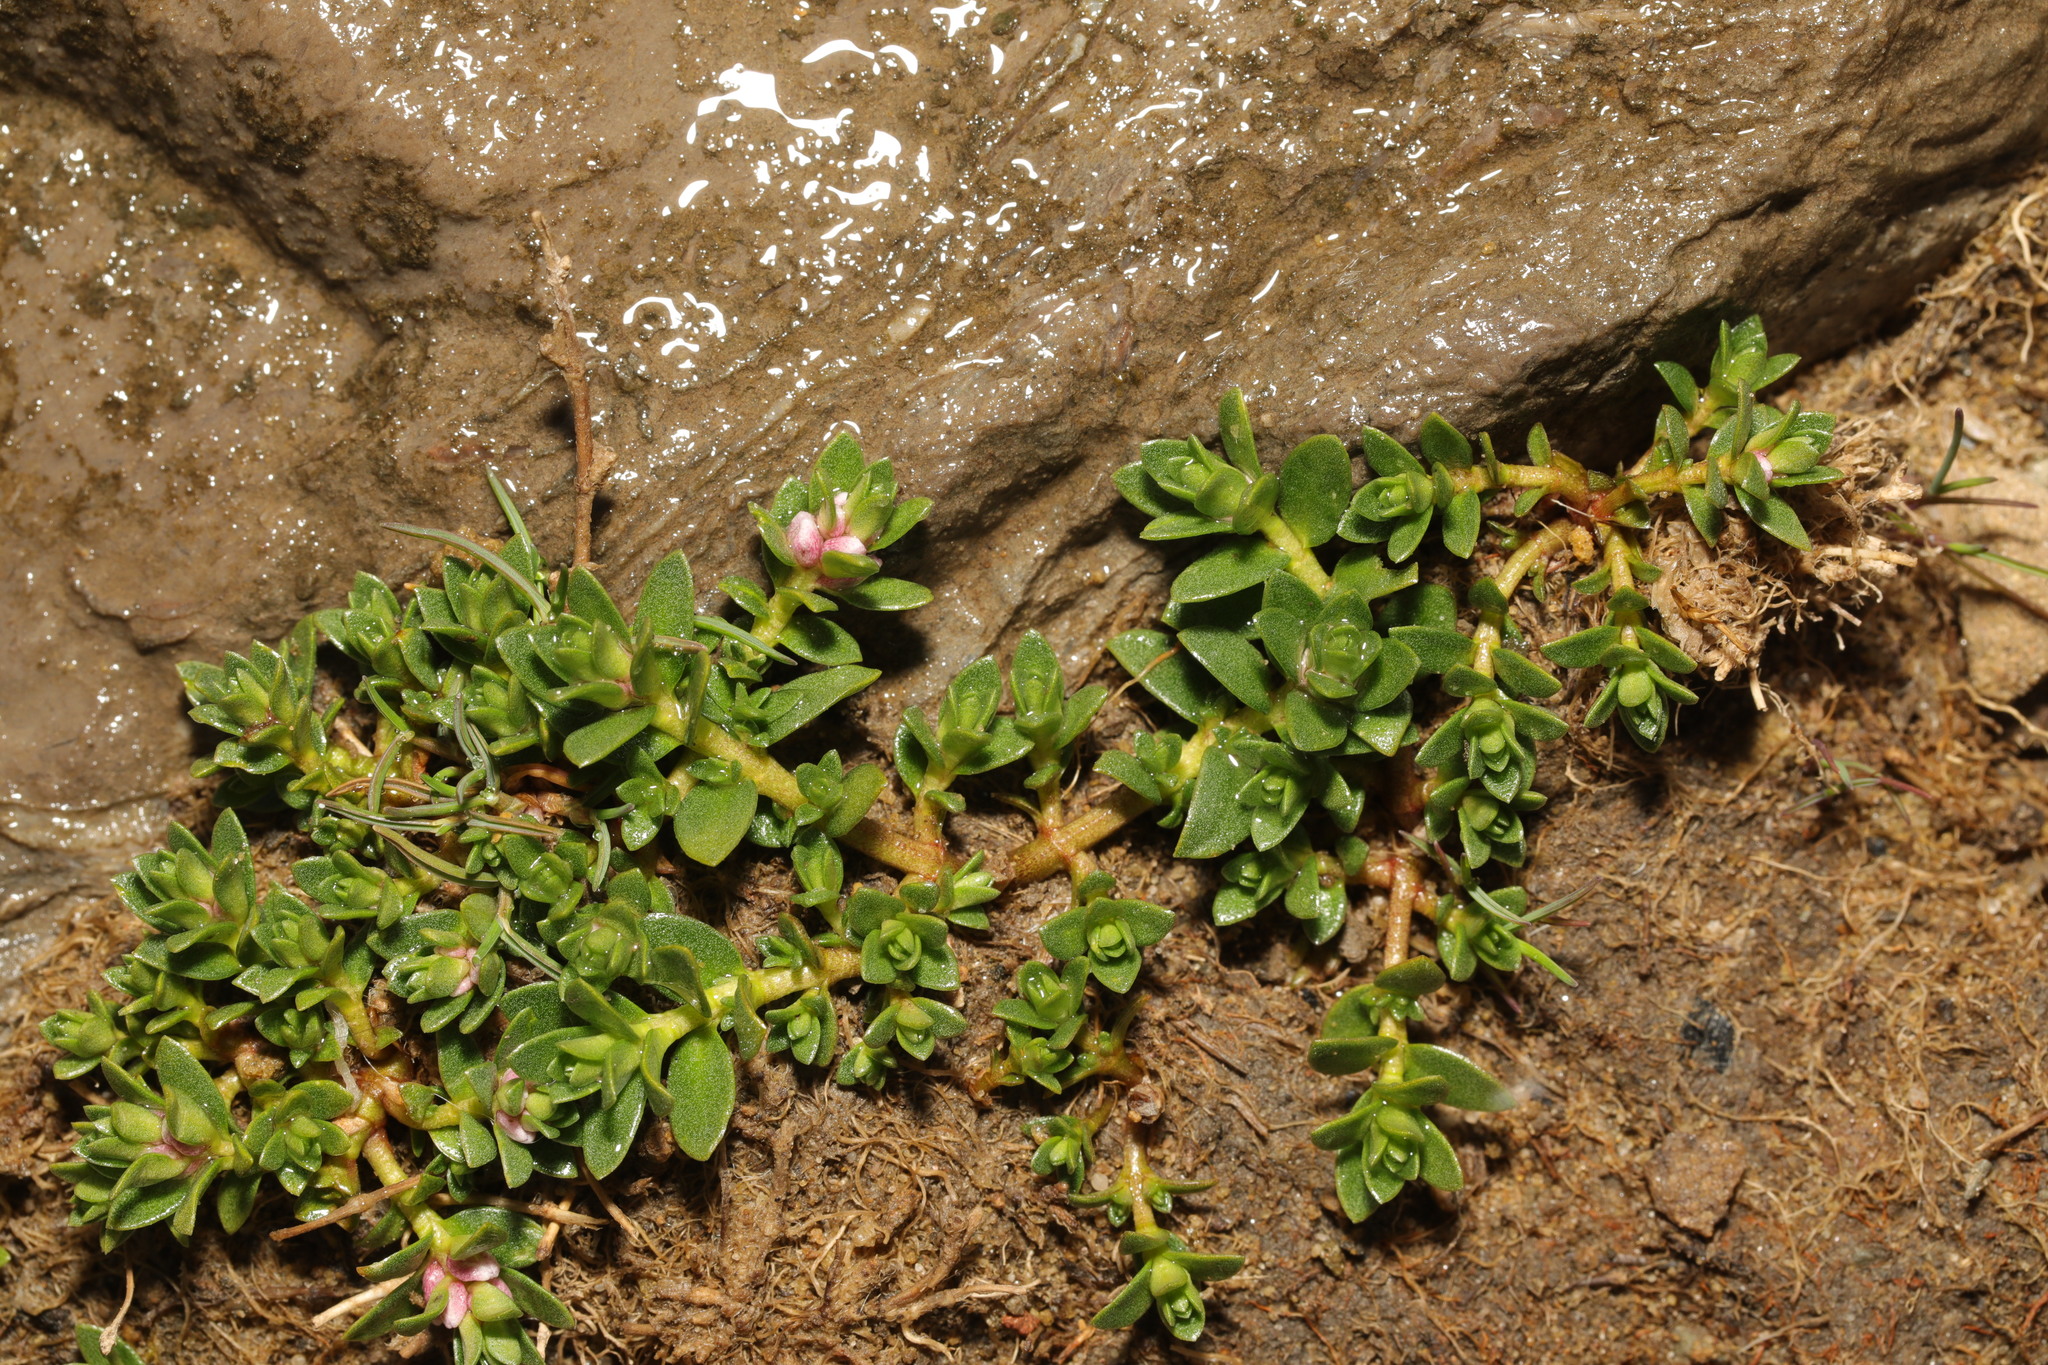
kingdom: Plantae
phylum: Tracheophyta
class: Magnoliopsida
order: Ericales
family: Primulaceae
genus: Lysimachia
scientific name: Lysimachia maritima
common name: Sea milkwort
